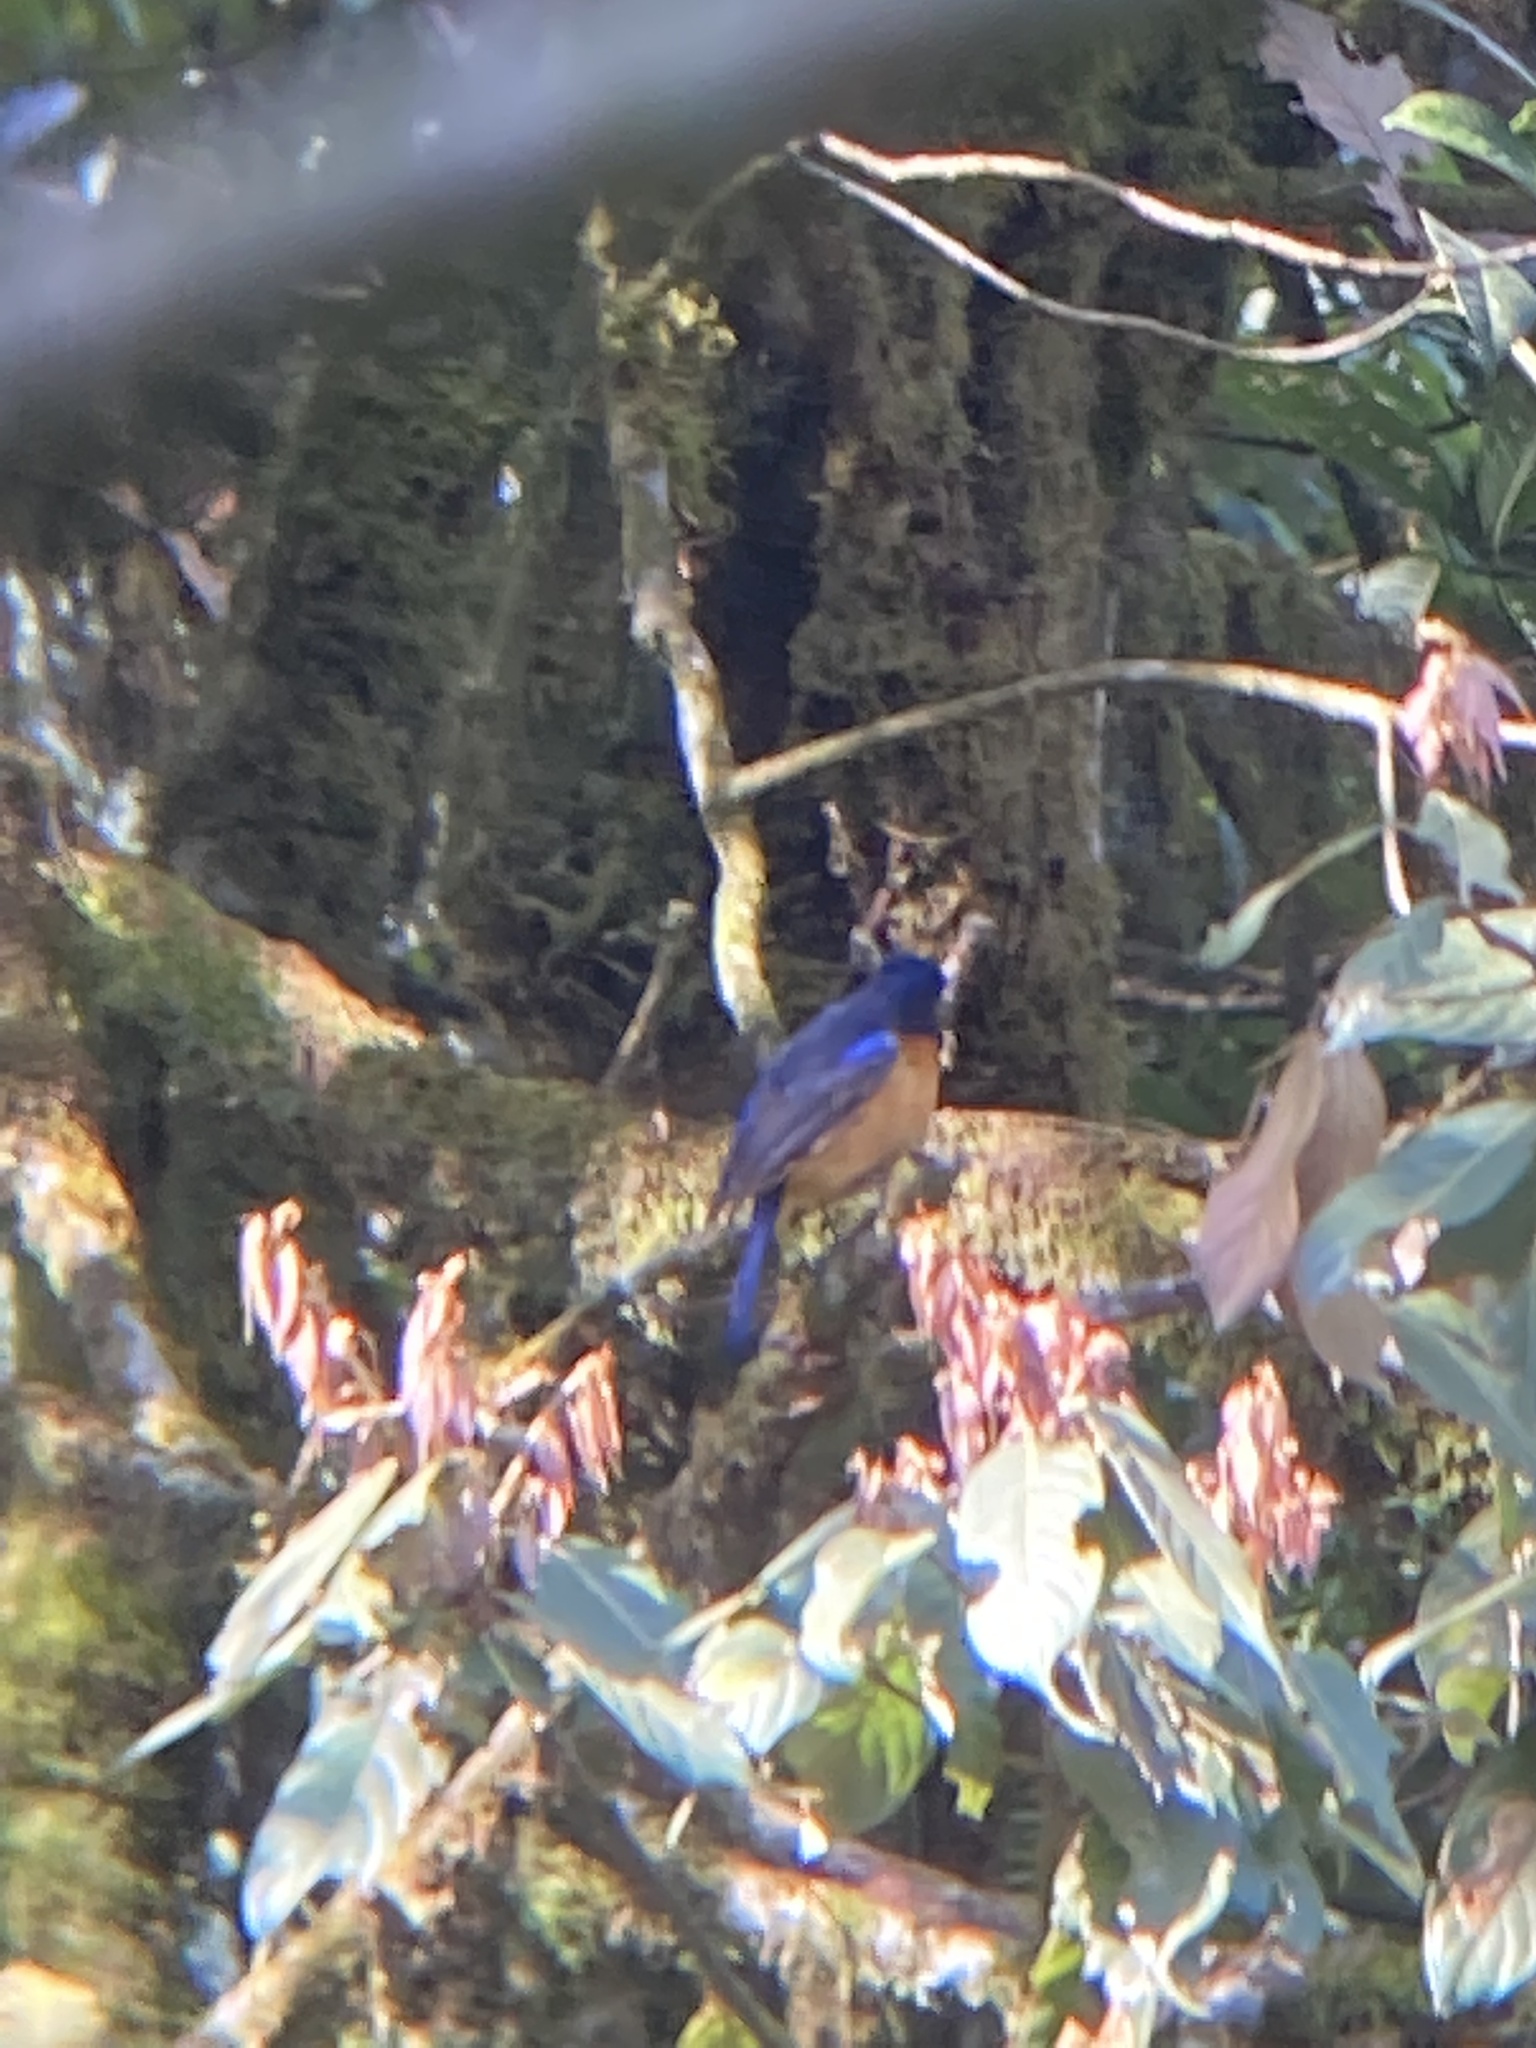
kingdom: Animalia
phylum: Chordata
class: Aves
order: Passeriformes
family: Muscicapidae
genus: Niltava
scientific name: Niltava sundara
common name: Rufous-bellied niltava
